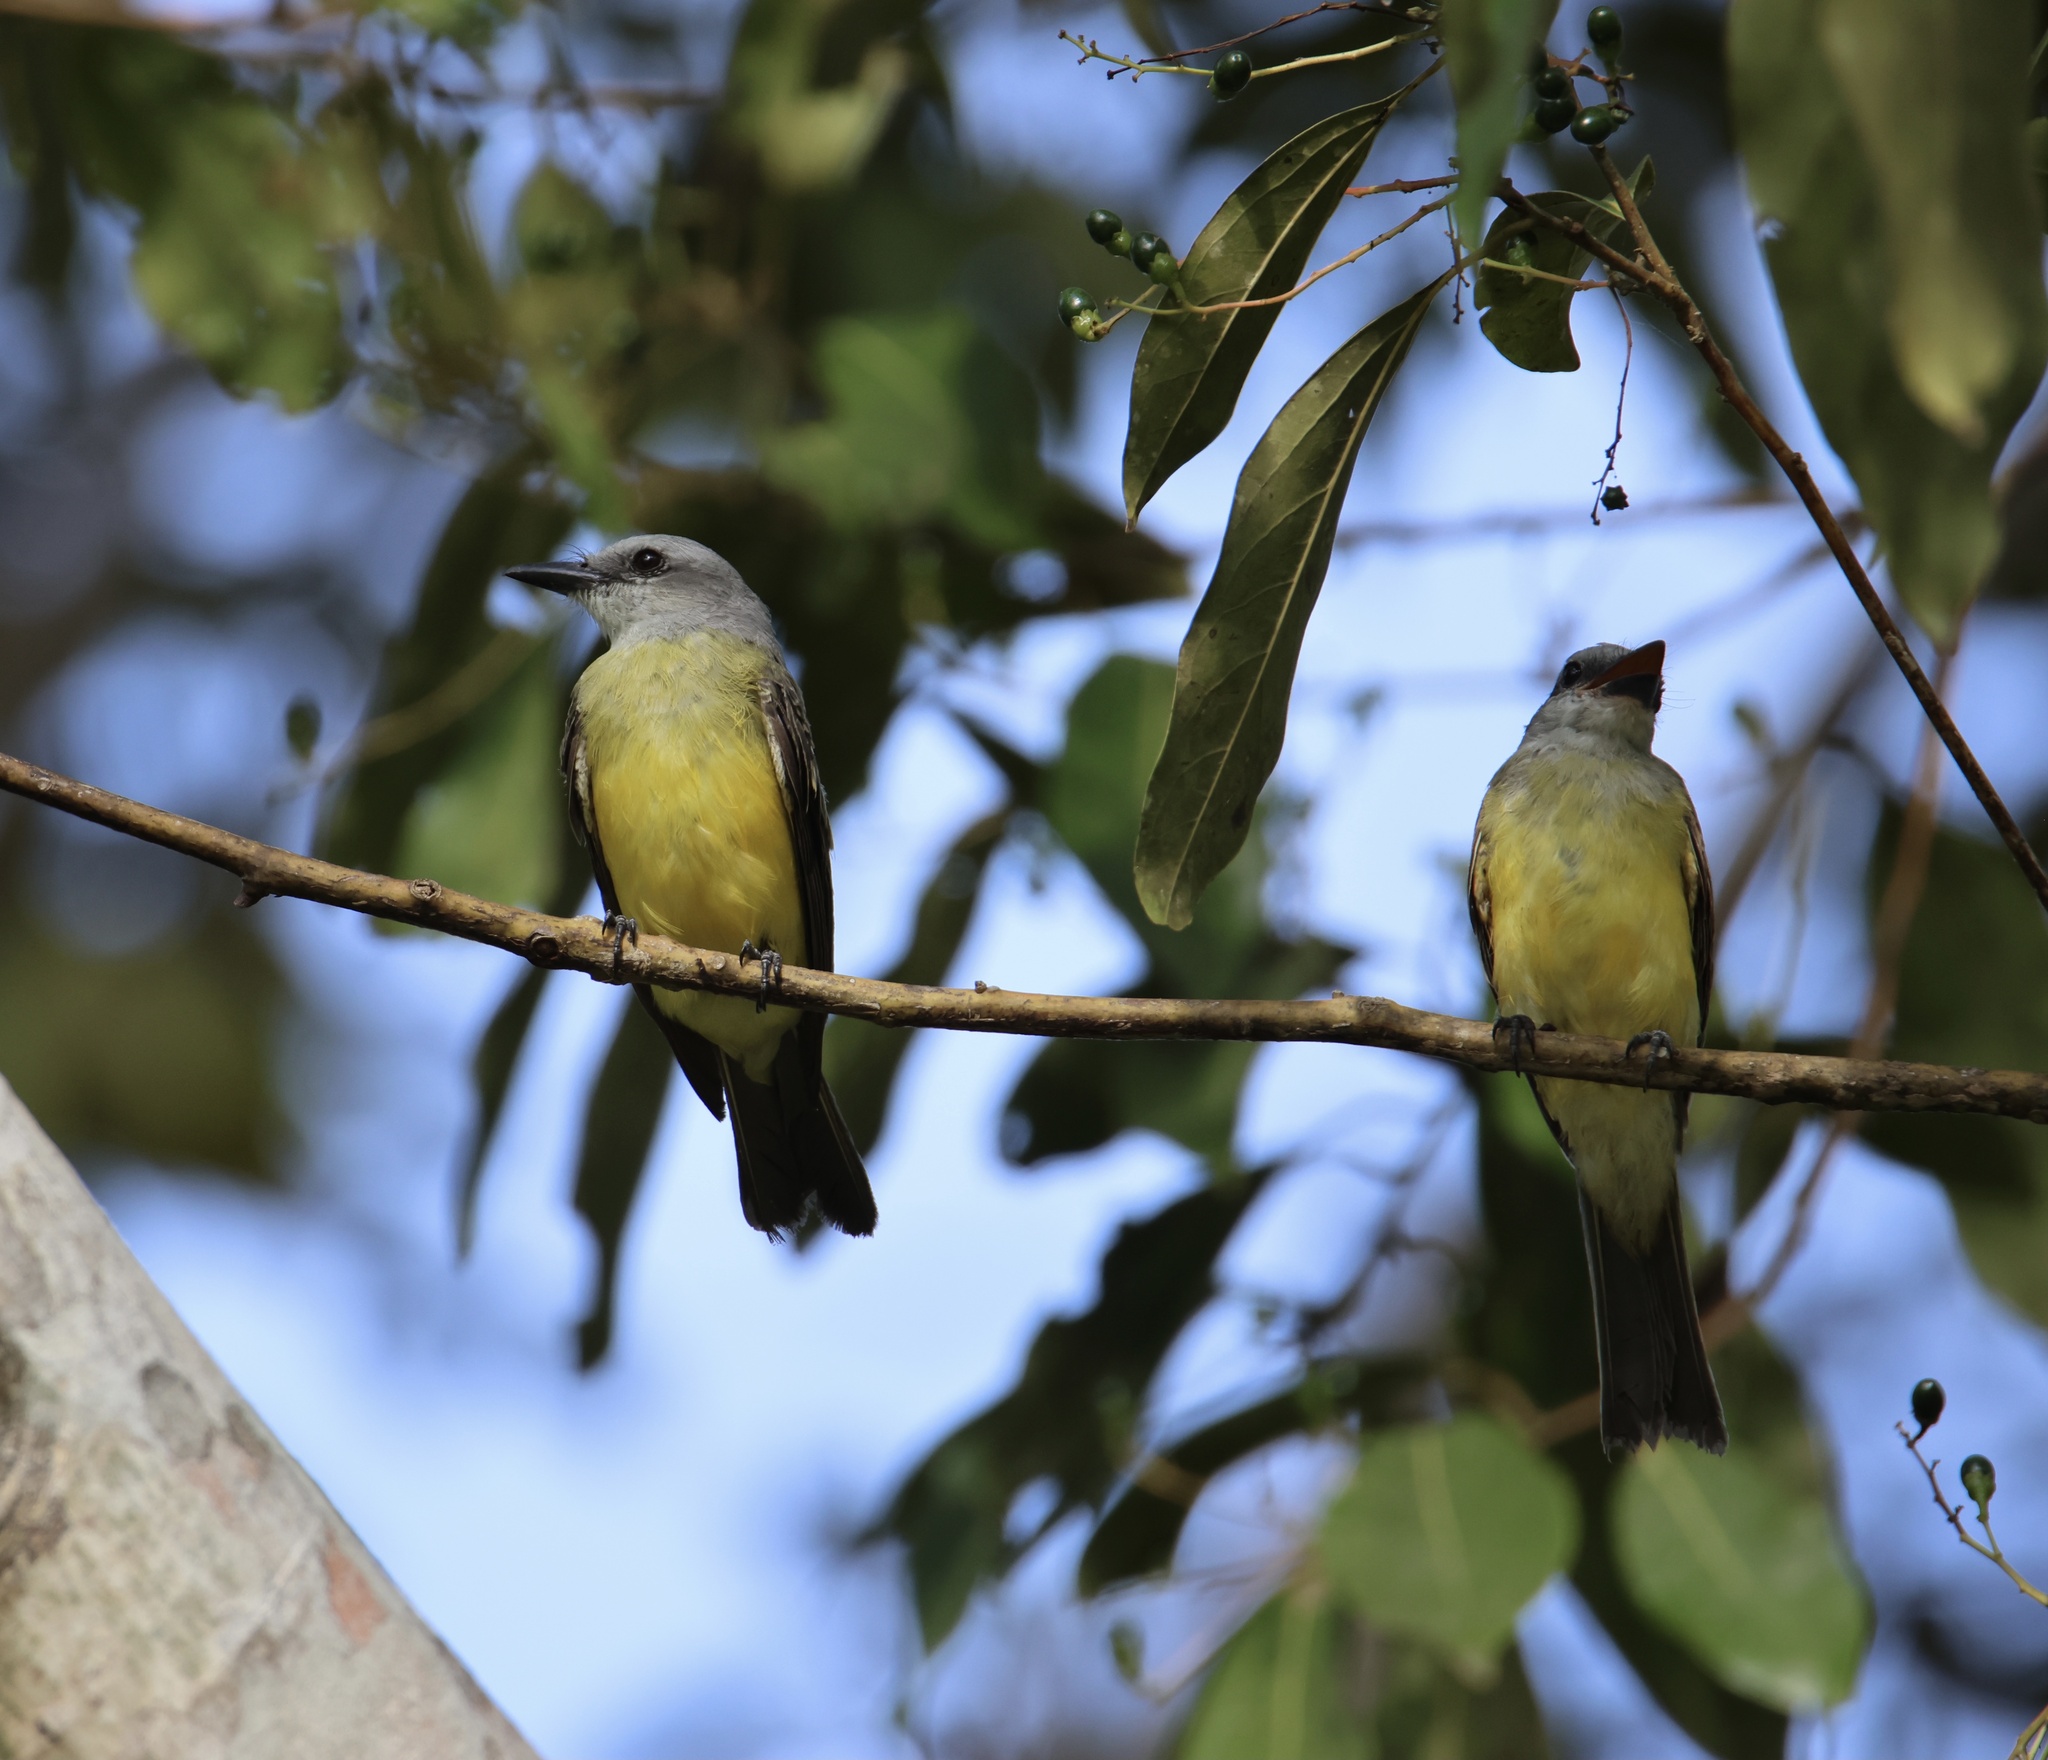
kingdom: Animalia
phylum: Chordata
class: Aves
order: Passeriformes
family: Tyrannidae
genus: Tyrannus
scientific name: Tyrannus melancholicus
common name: Tropical kingbird
